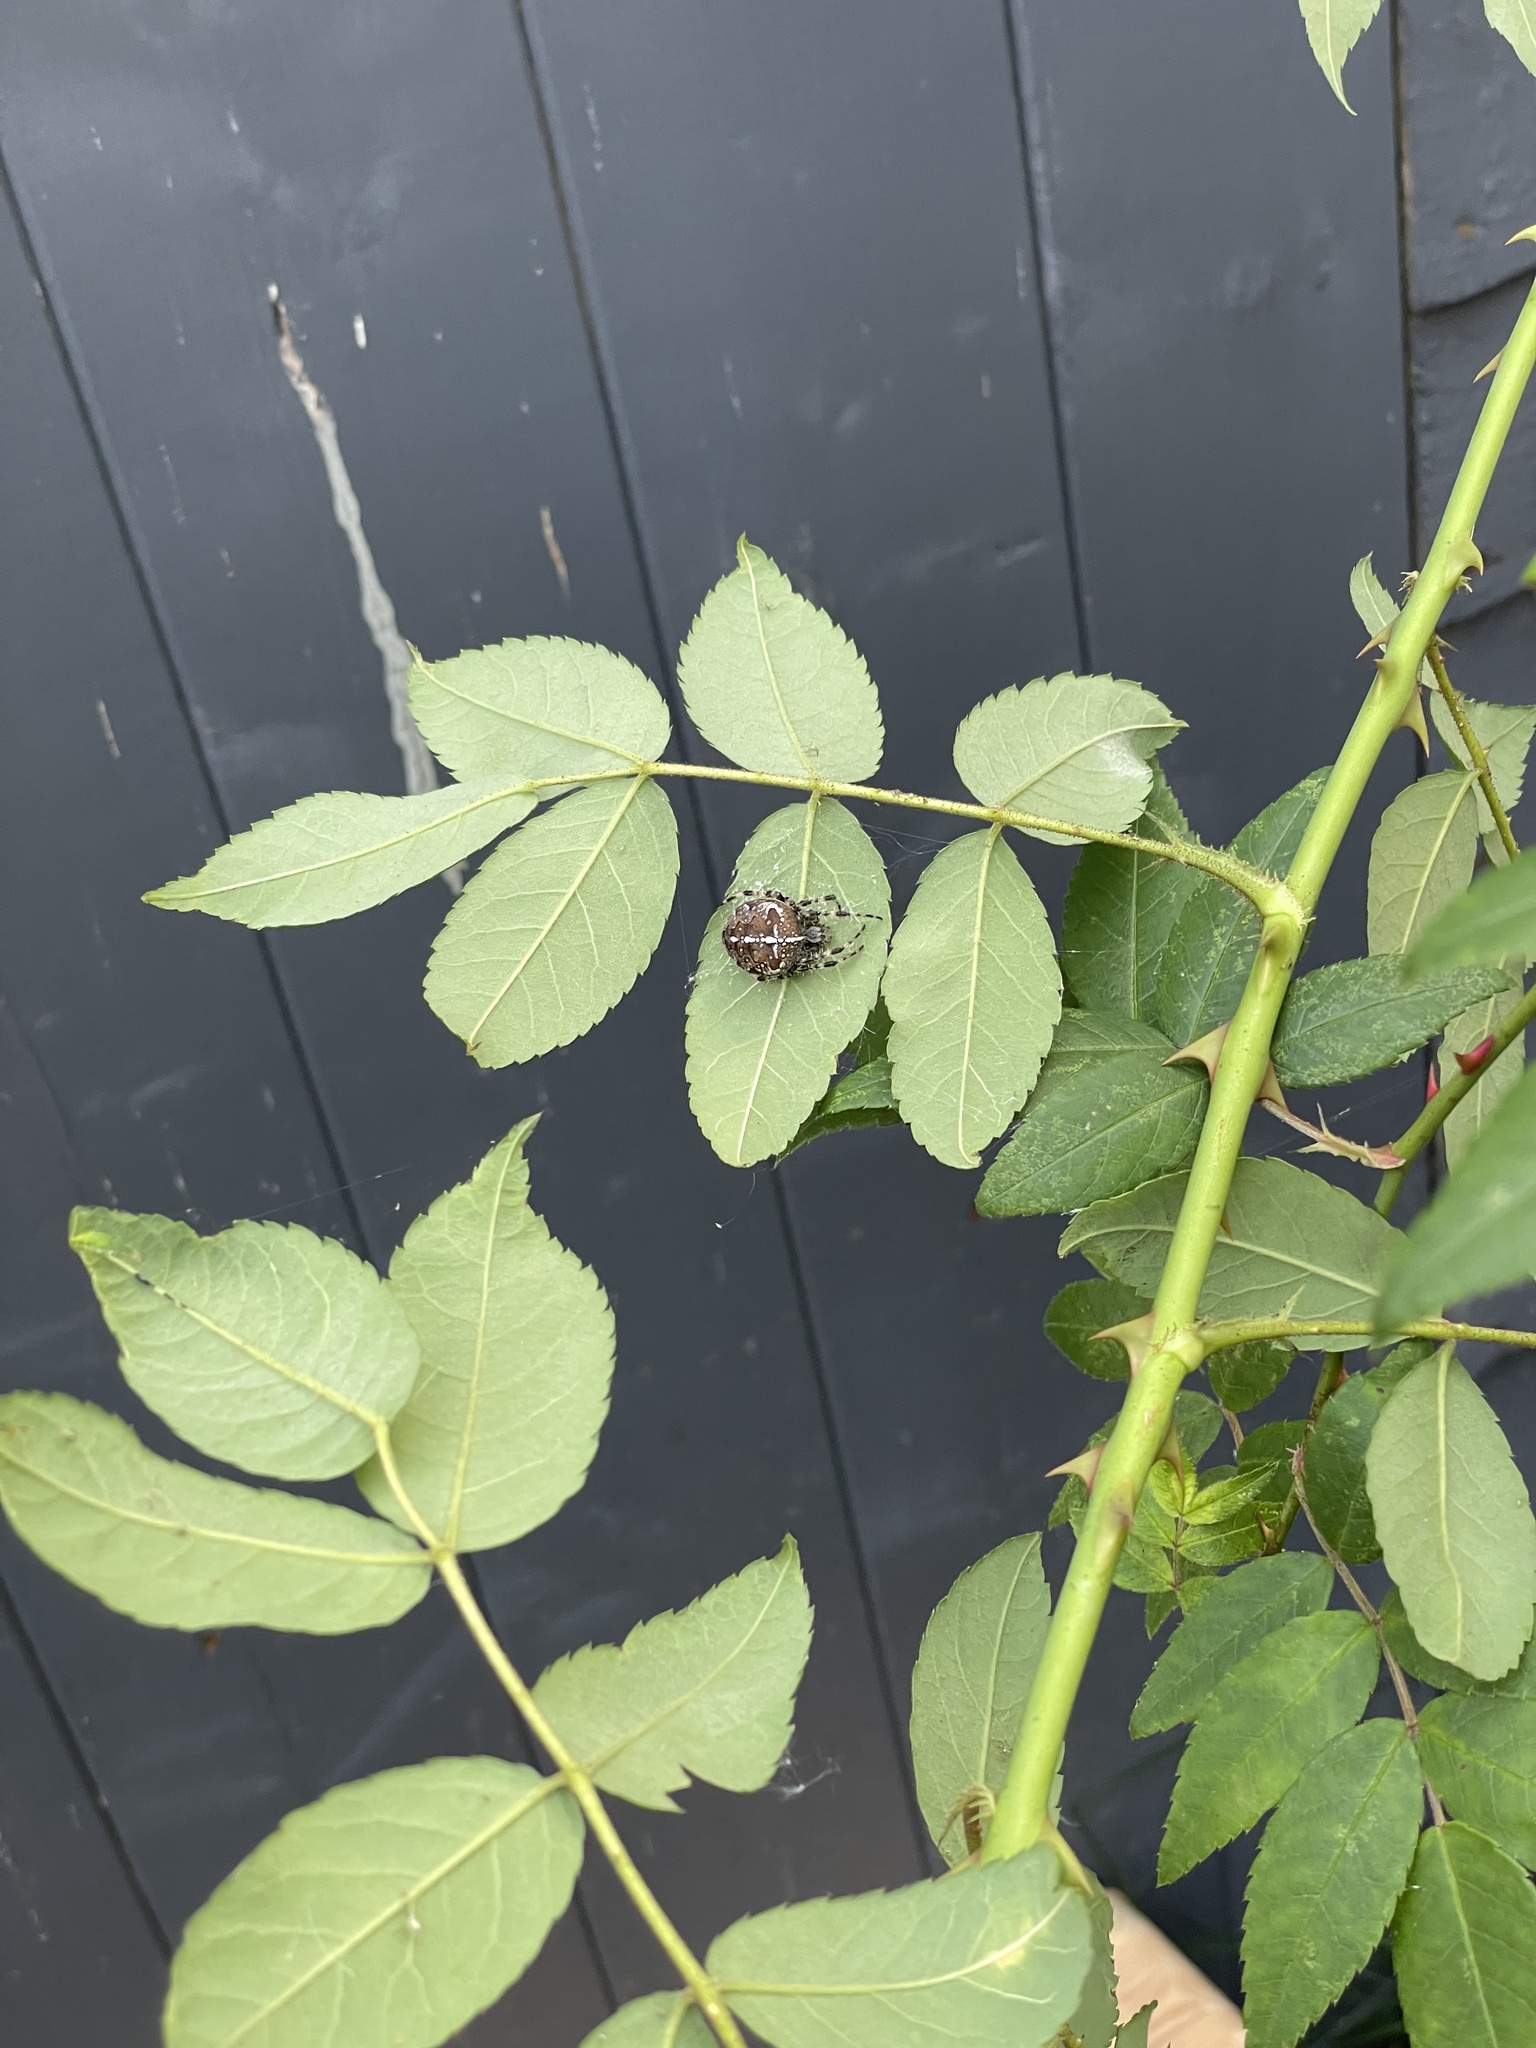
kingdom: Animalia
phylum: Arthropoda
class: Arachnida
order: Araneae
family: Araneidae
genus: Araneus
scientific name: Araneus diadematus
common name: Cross orbweaver
